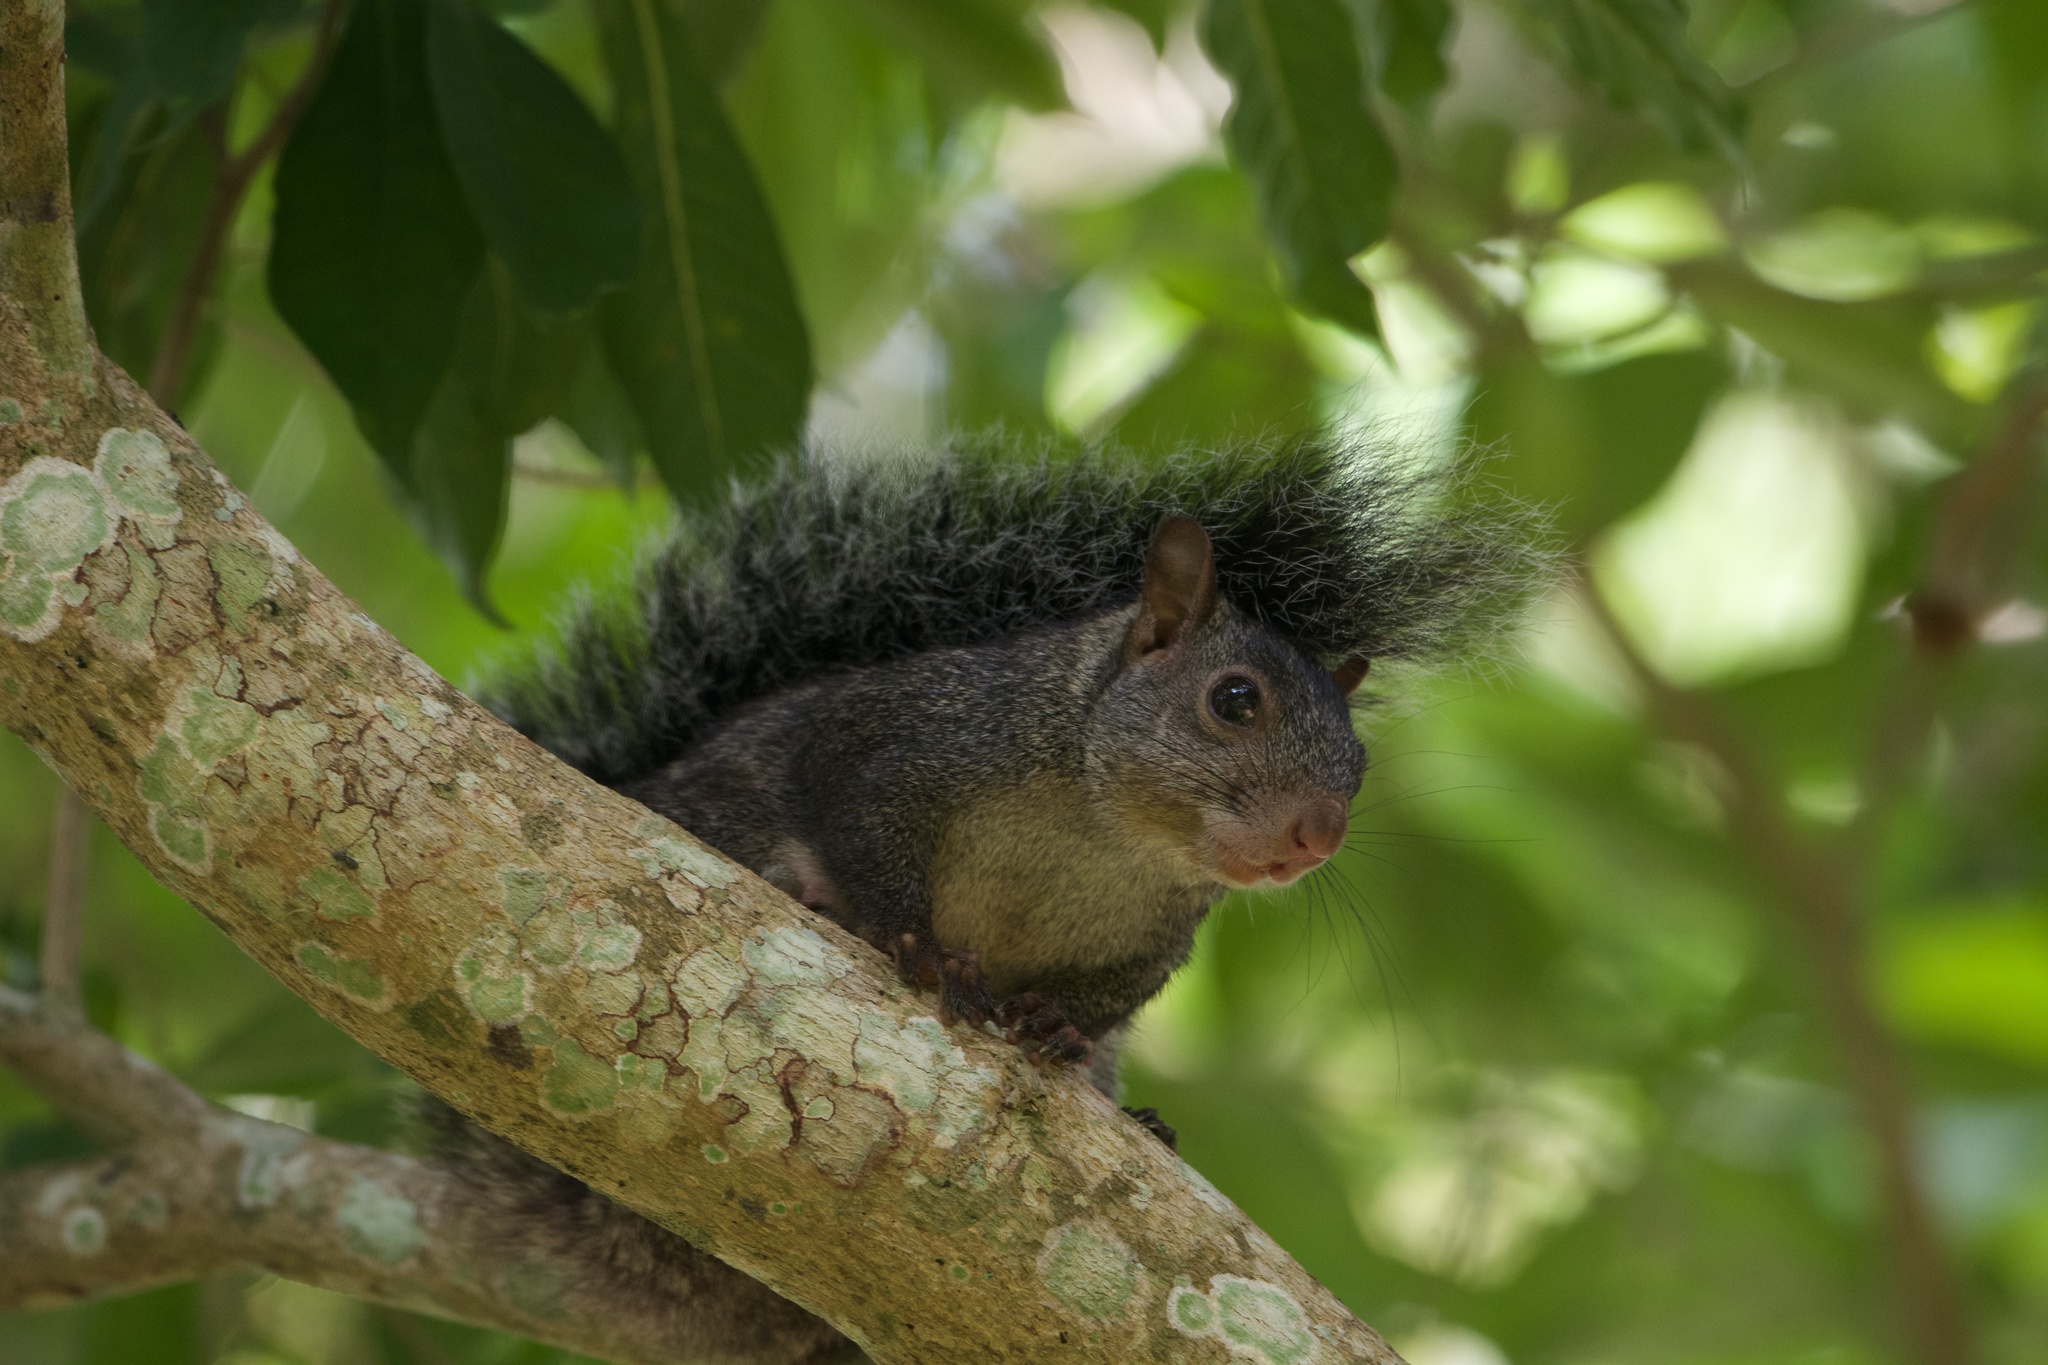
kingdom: Animalia
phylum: Chordata
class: Mammalia
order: Rodentia
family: Sciuridae
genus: Sciurus
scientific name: Sciurus yucatanensis
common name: Yucatan squirrel
